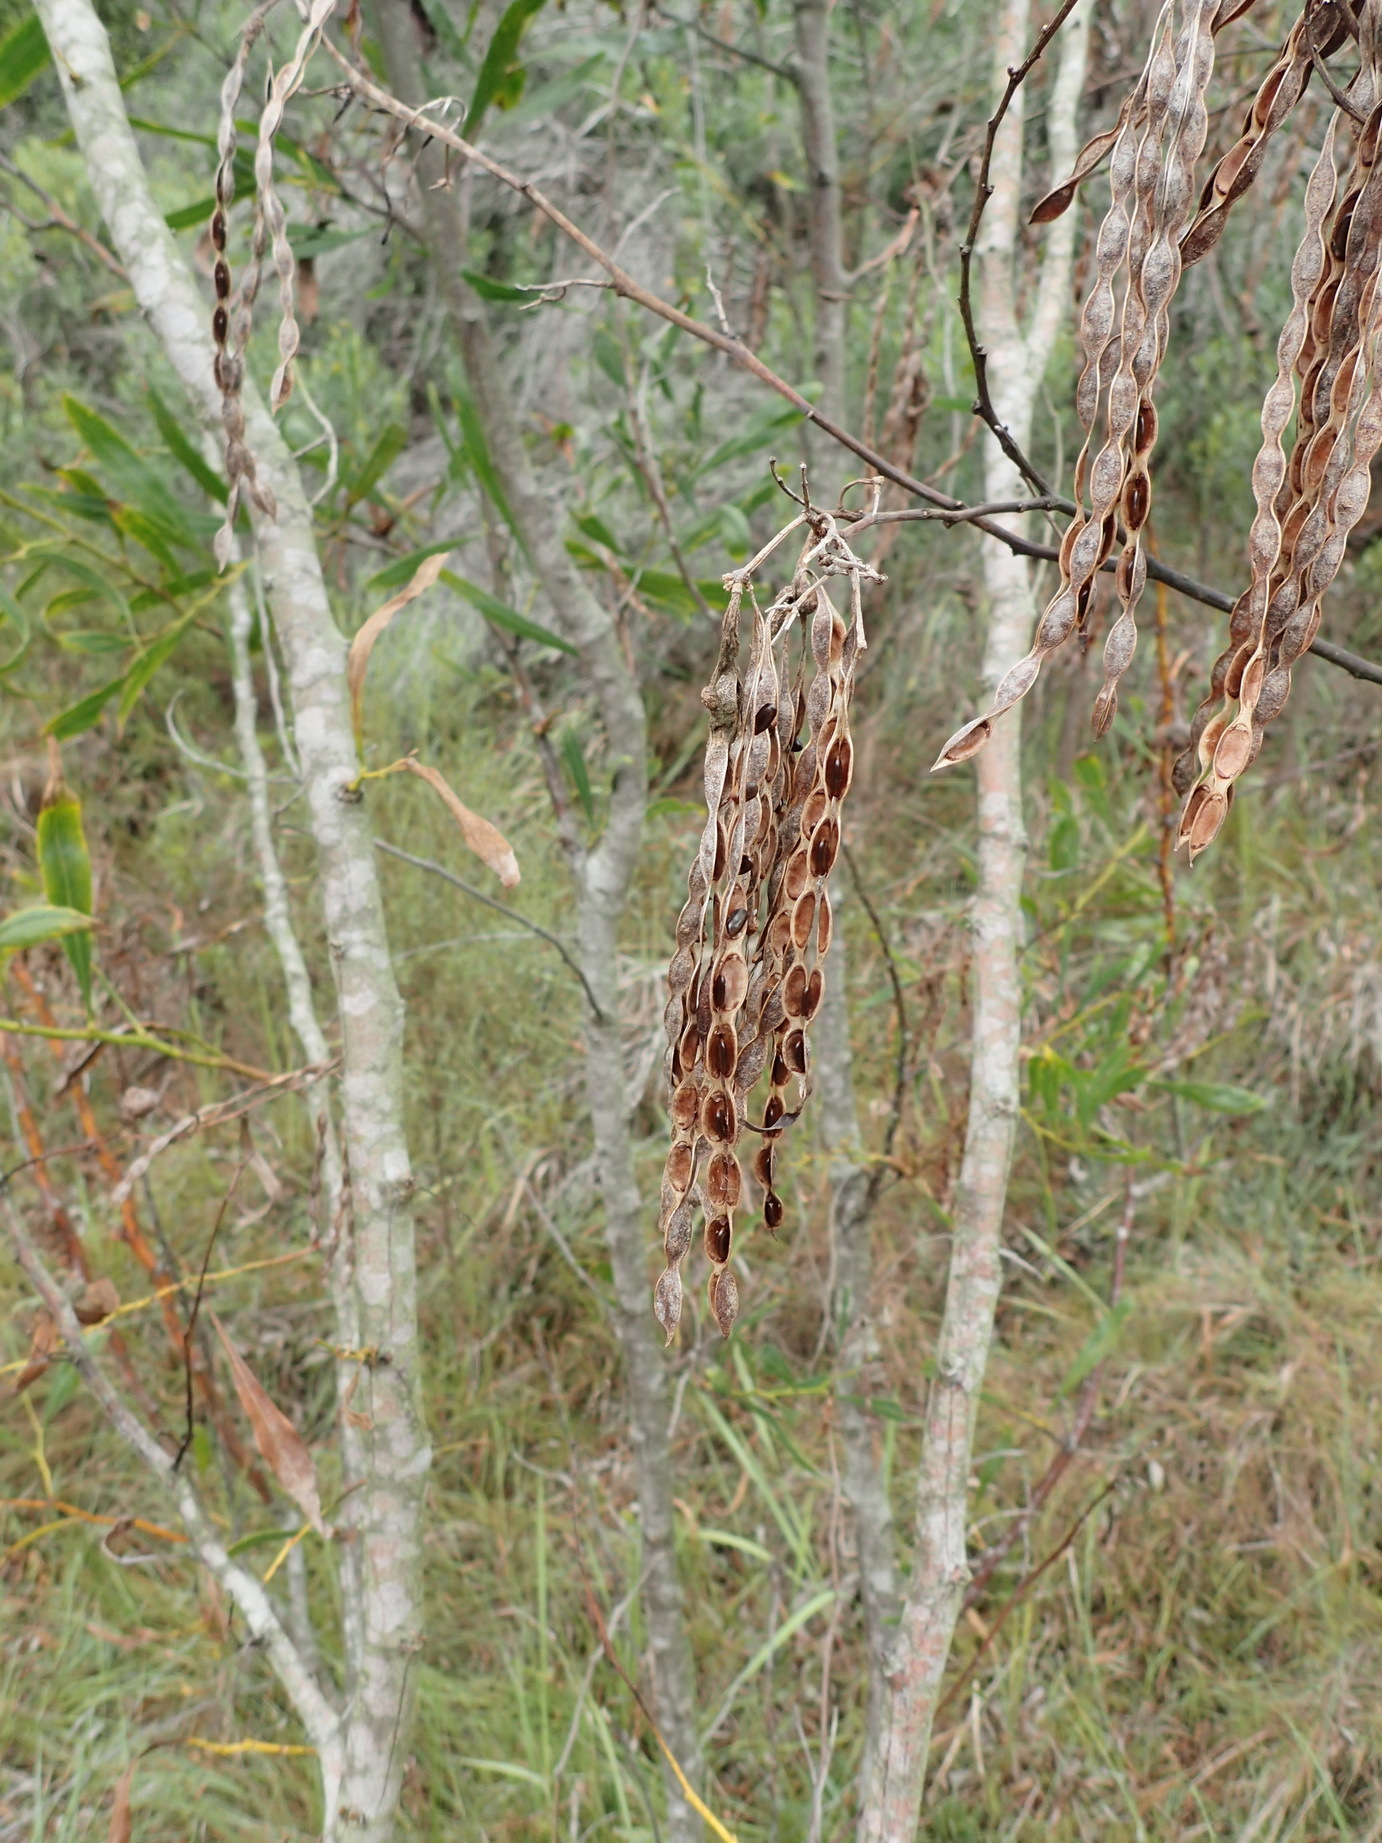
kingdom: Plantae
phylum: Tracheophyta
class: Magnoliopsida
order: Fabales
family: Fabaceae
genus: Acacia
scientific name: Acacia saligna
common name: Orange wattle
